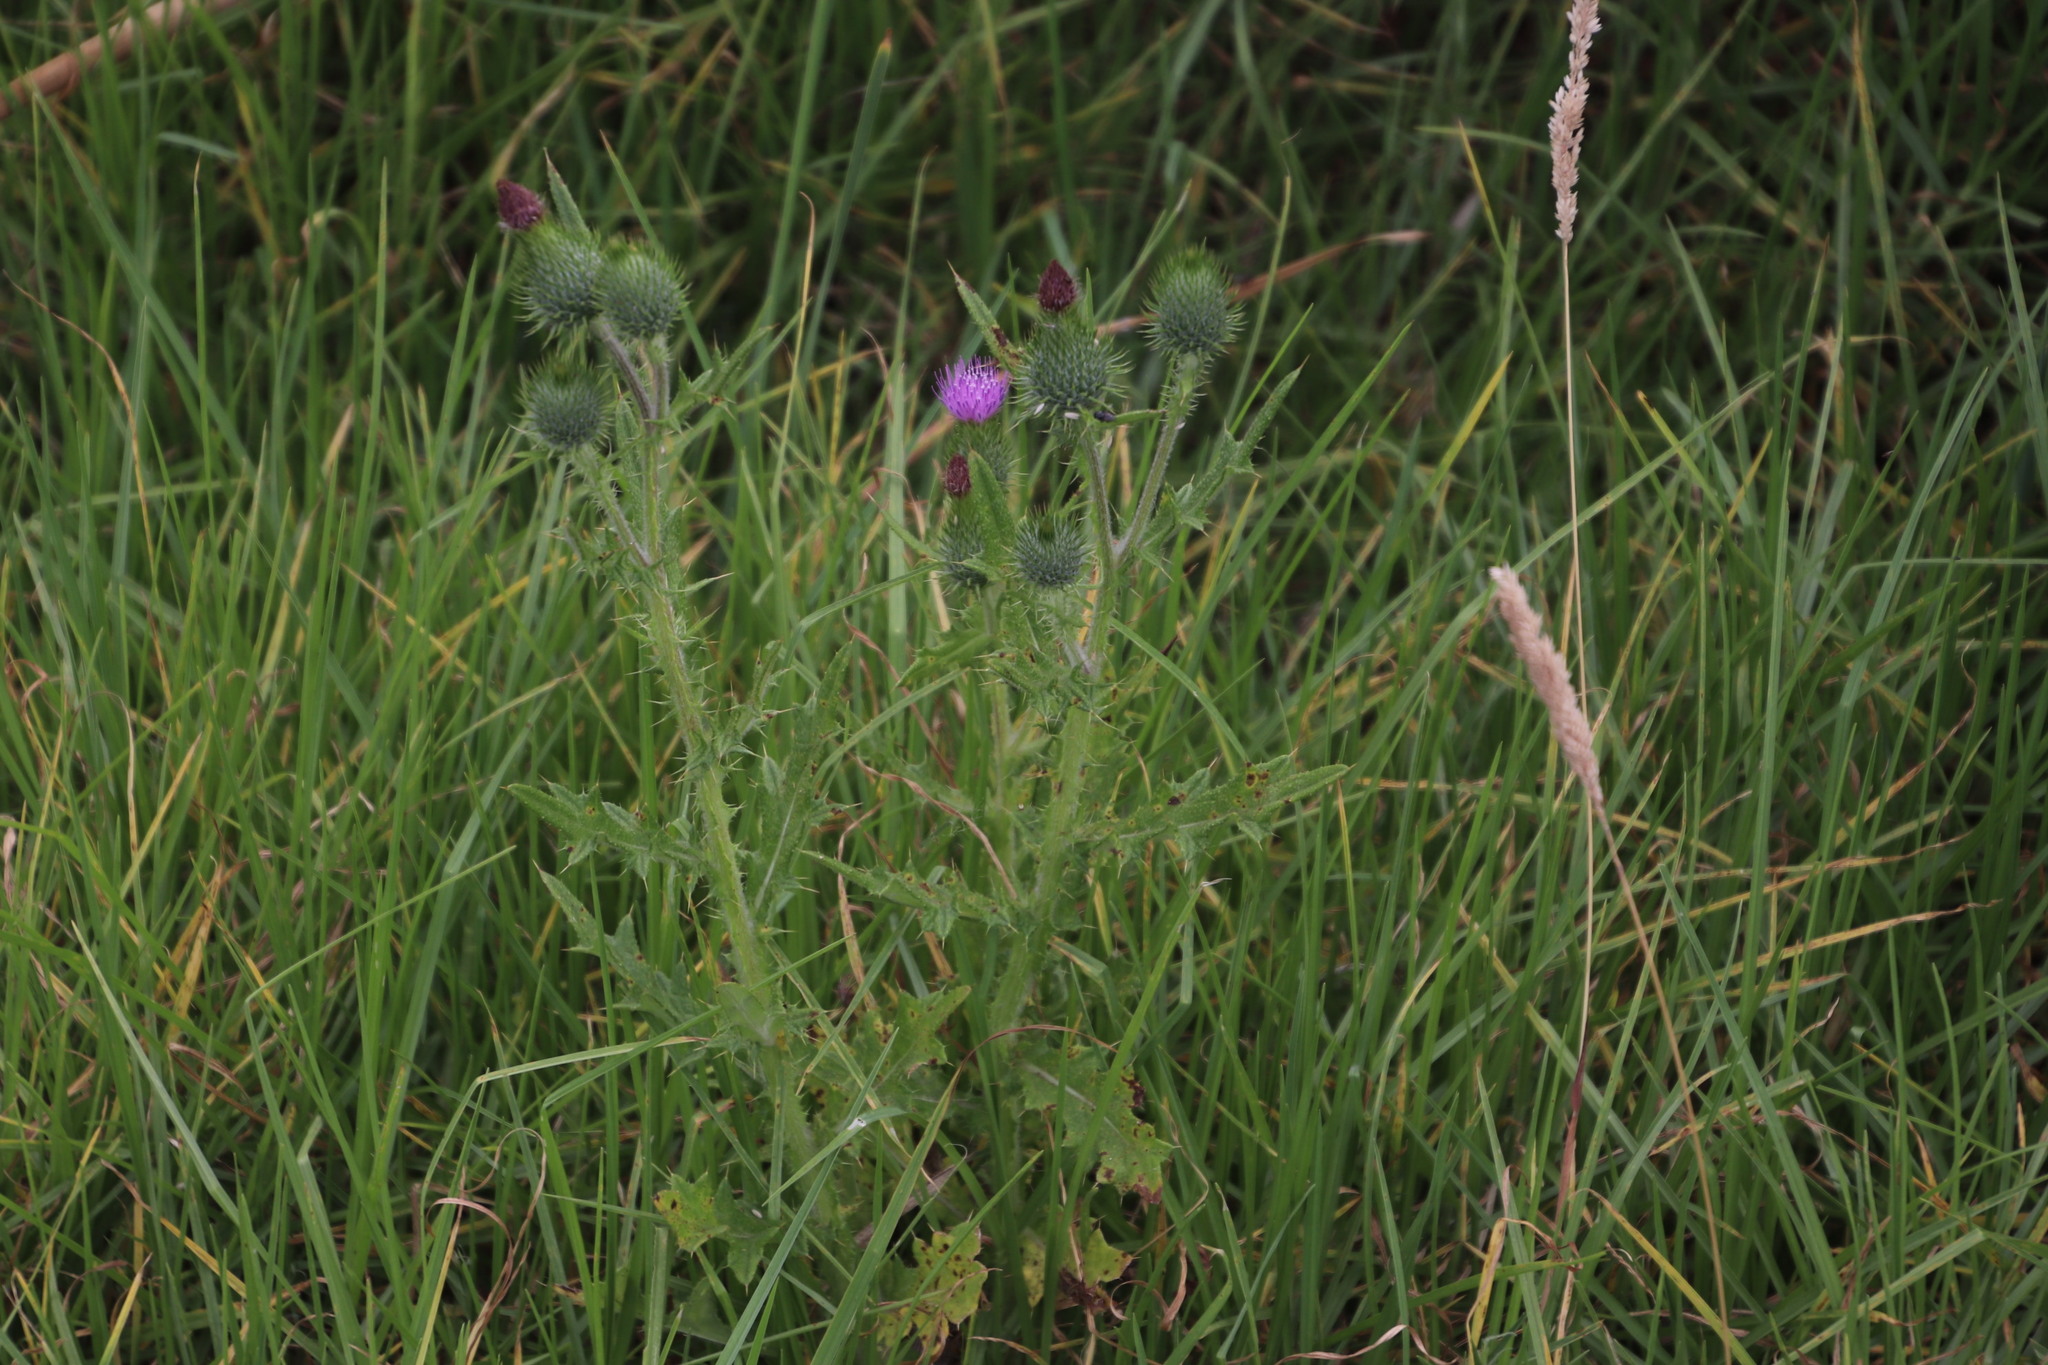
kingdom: Plantae
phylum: Tracheophyta
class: Magnoliopsida
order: Asterales
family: Asteraceae
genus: Cirsium
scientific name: Cirsium vulgare
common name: Bull thistle
